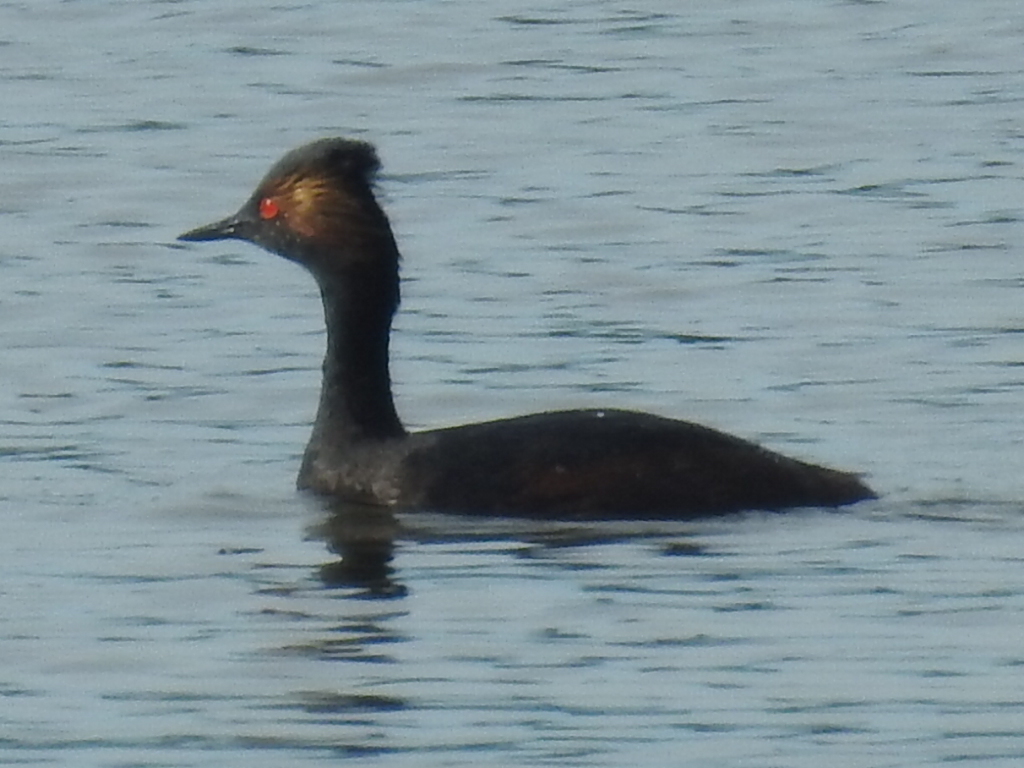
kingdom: Animalia
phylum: Chordata
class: Aves
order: Podicipediformes
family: Podicipedidae
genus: Podiceps
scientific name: Podiceps nigricollis
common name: Black-necked grebe
